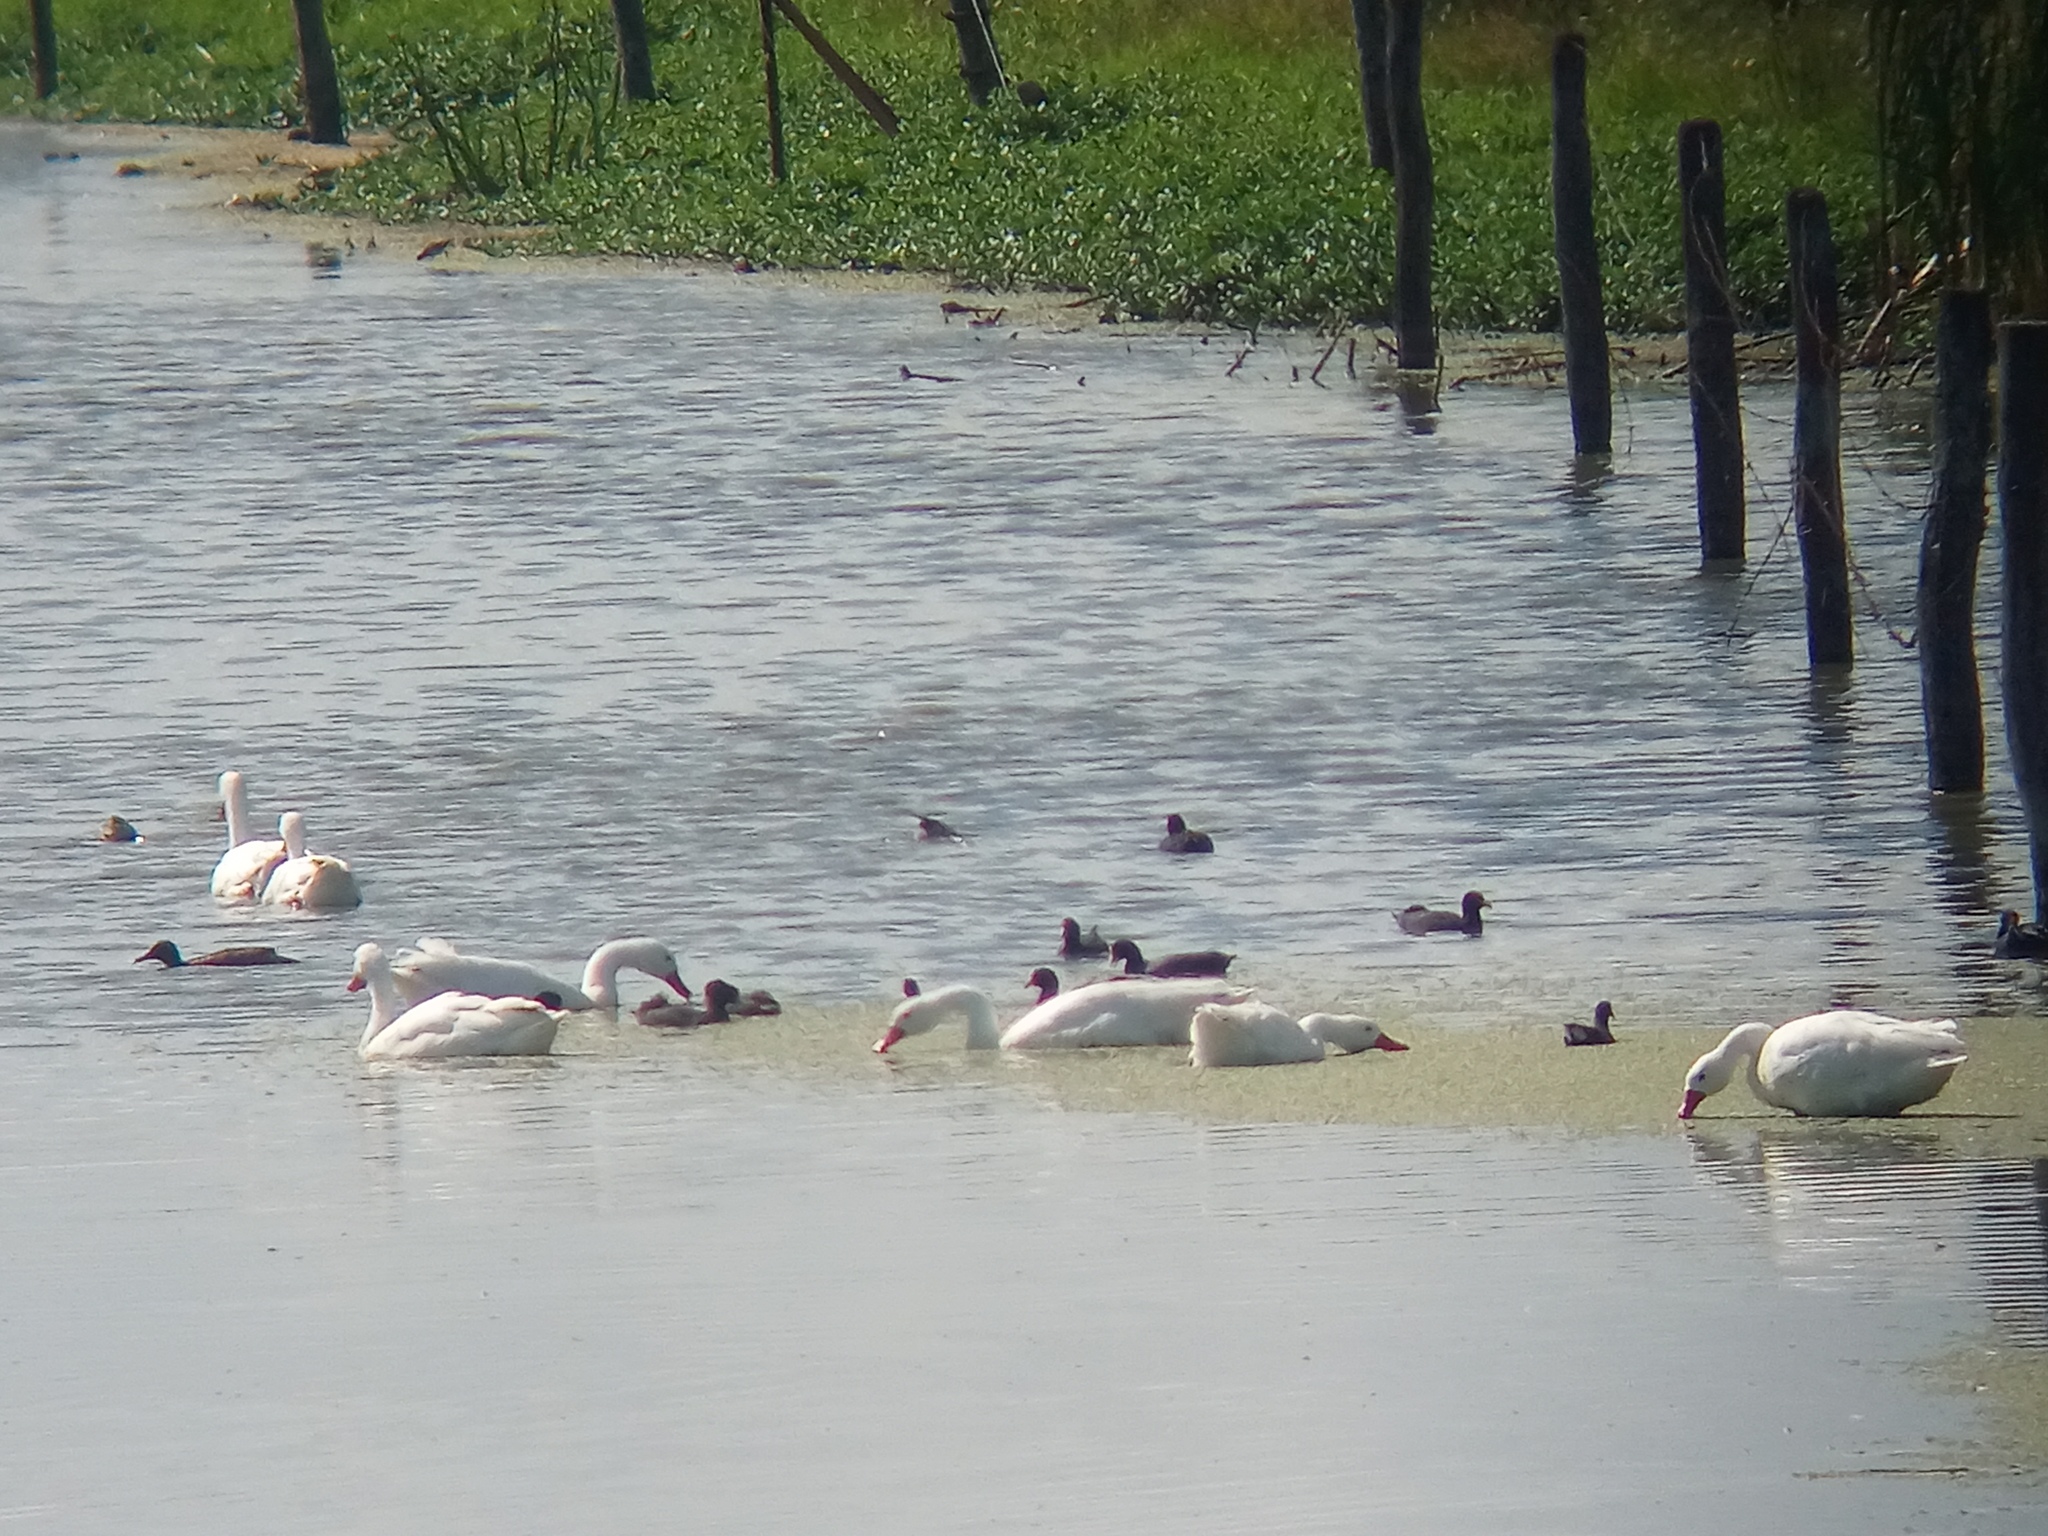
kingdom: Animalia
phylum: Chordata
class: Aves
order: Anseriformes
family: Anatidae
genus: Coscoroba
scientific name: Coscoroba coscoroba
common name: Coscoroba swan
